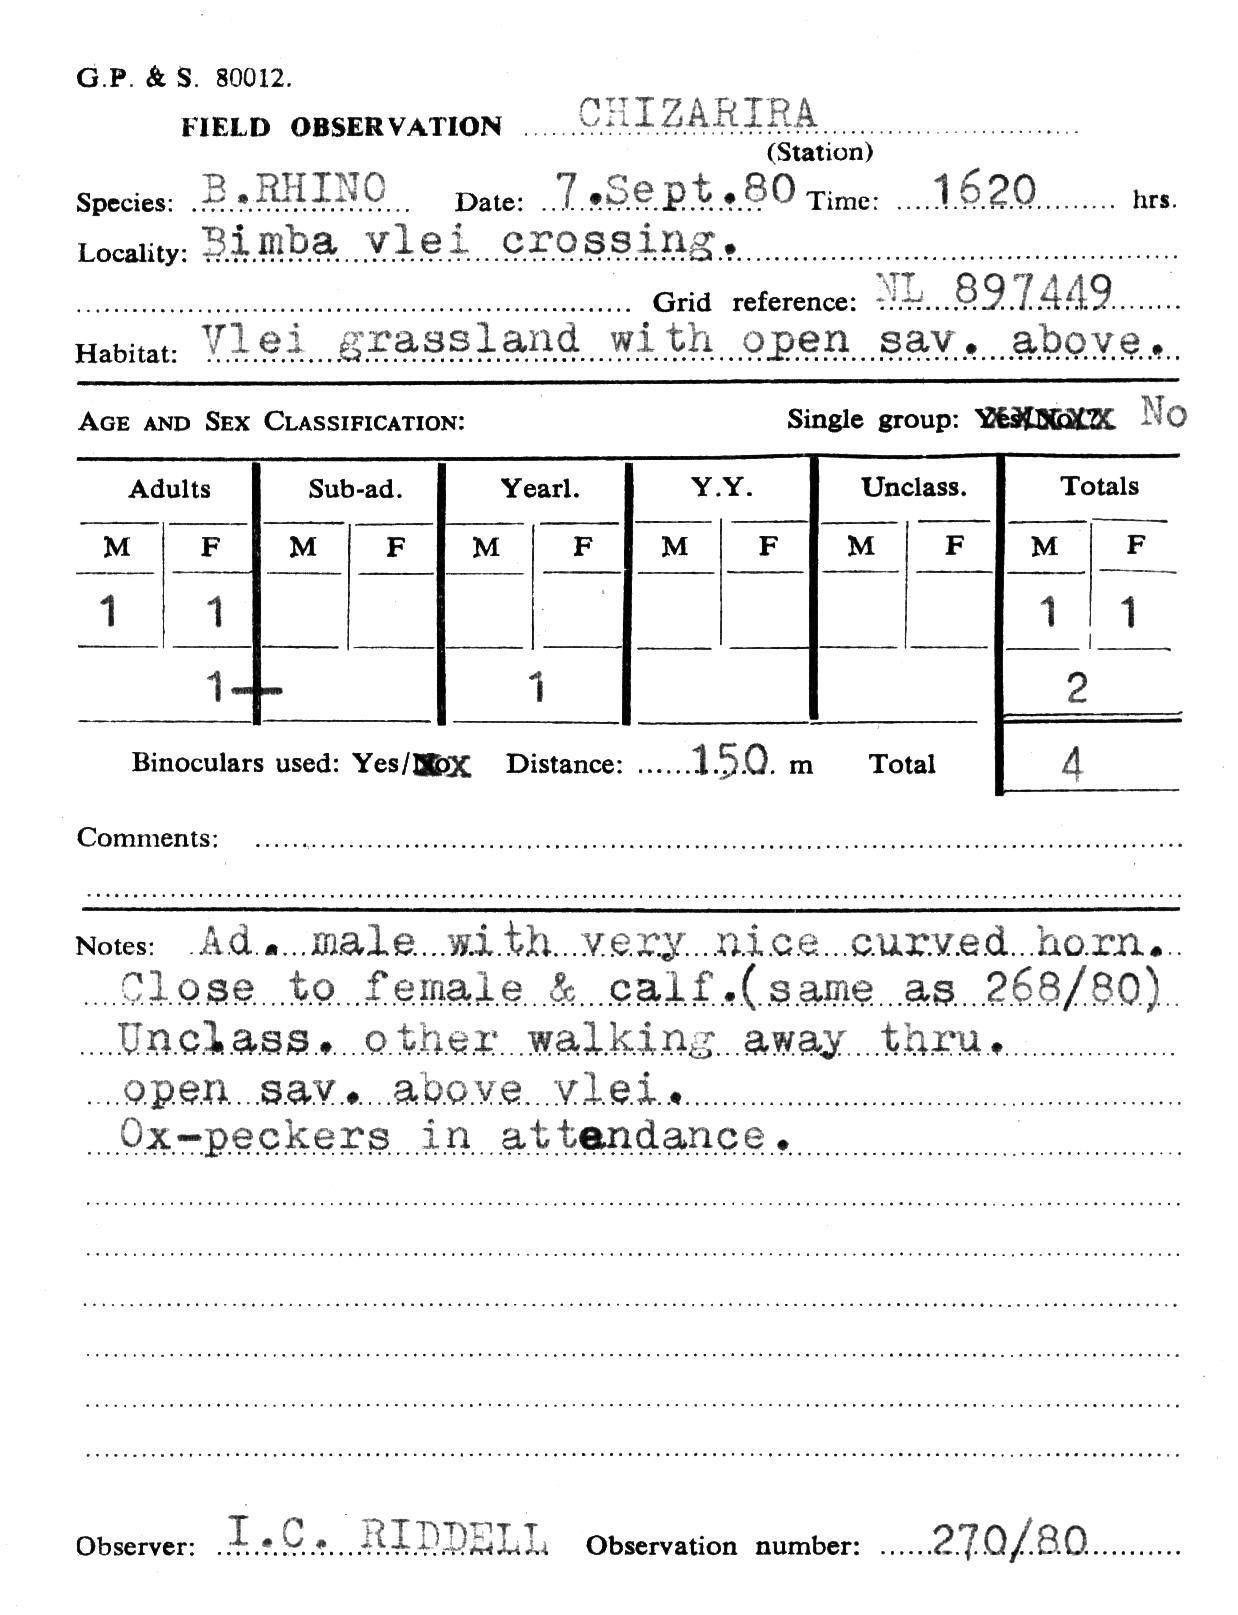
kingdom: Animalia
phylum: Chordata
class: Mammalia
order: Perissodactyla
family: Rhinocerotidae
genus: Diceros
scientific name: Diceros bicornis
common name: Black rhinoceros
